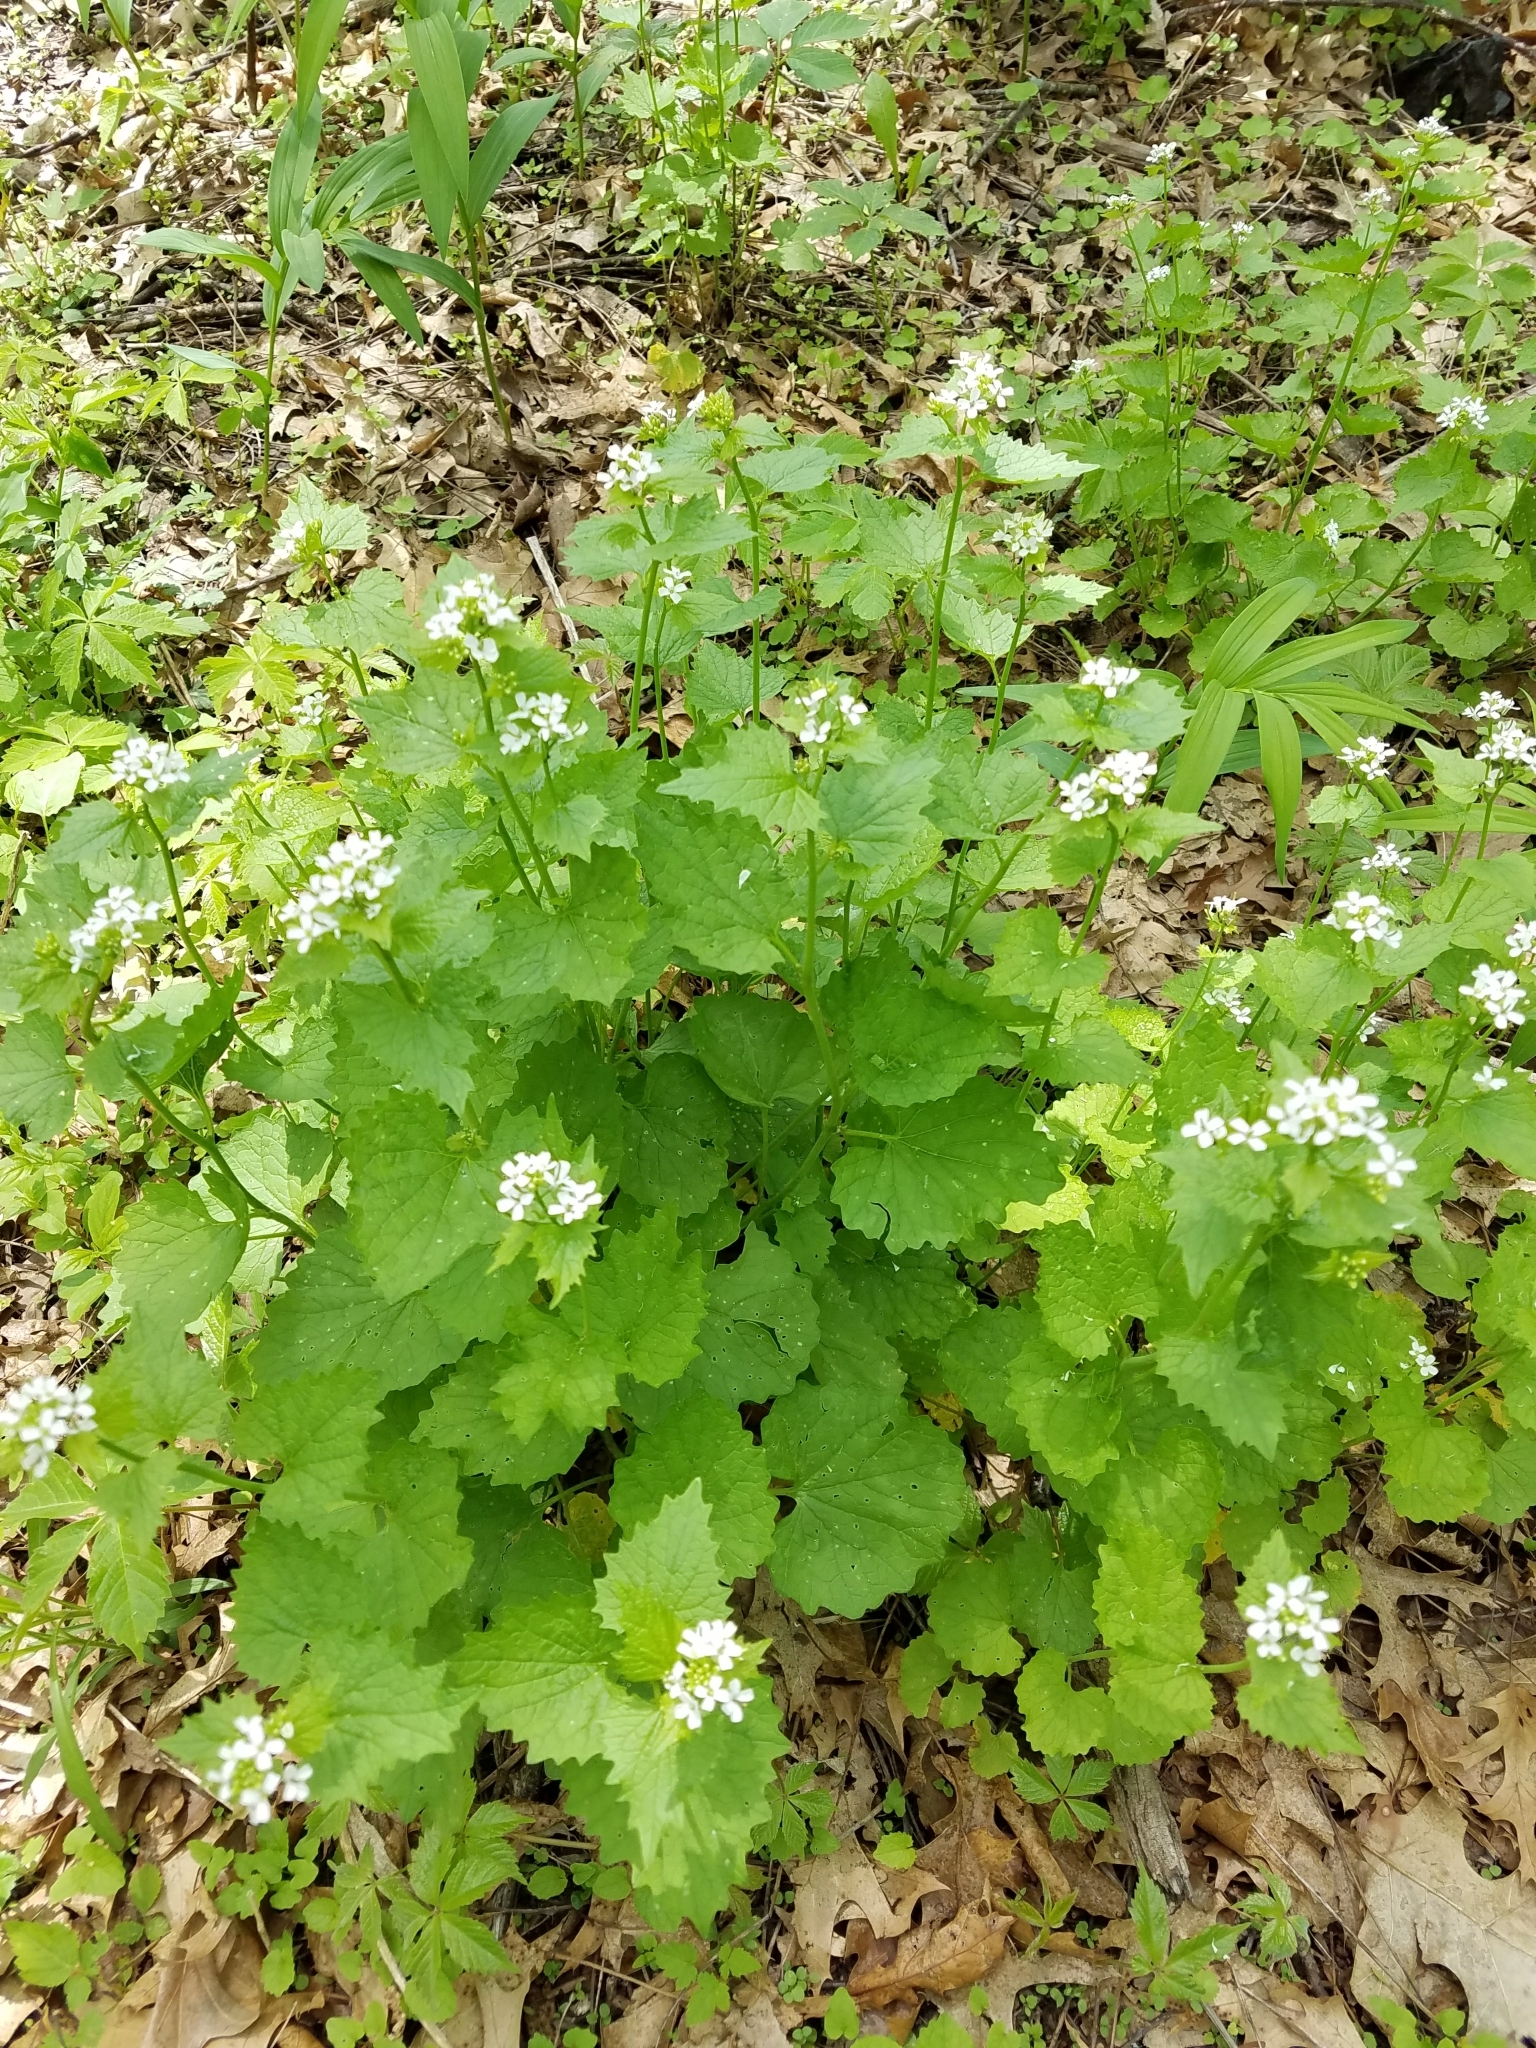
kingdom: Plantae
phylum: Tracheophyta
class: Magnoliopsida
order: Brassicales
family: Brassicaceae
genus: Alliaria
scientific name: Alliaria petiolata
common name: Garlic mustard
